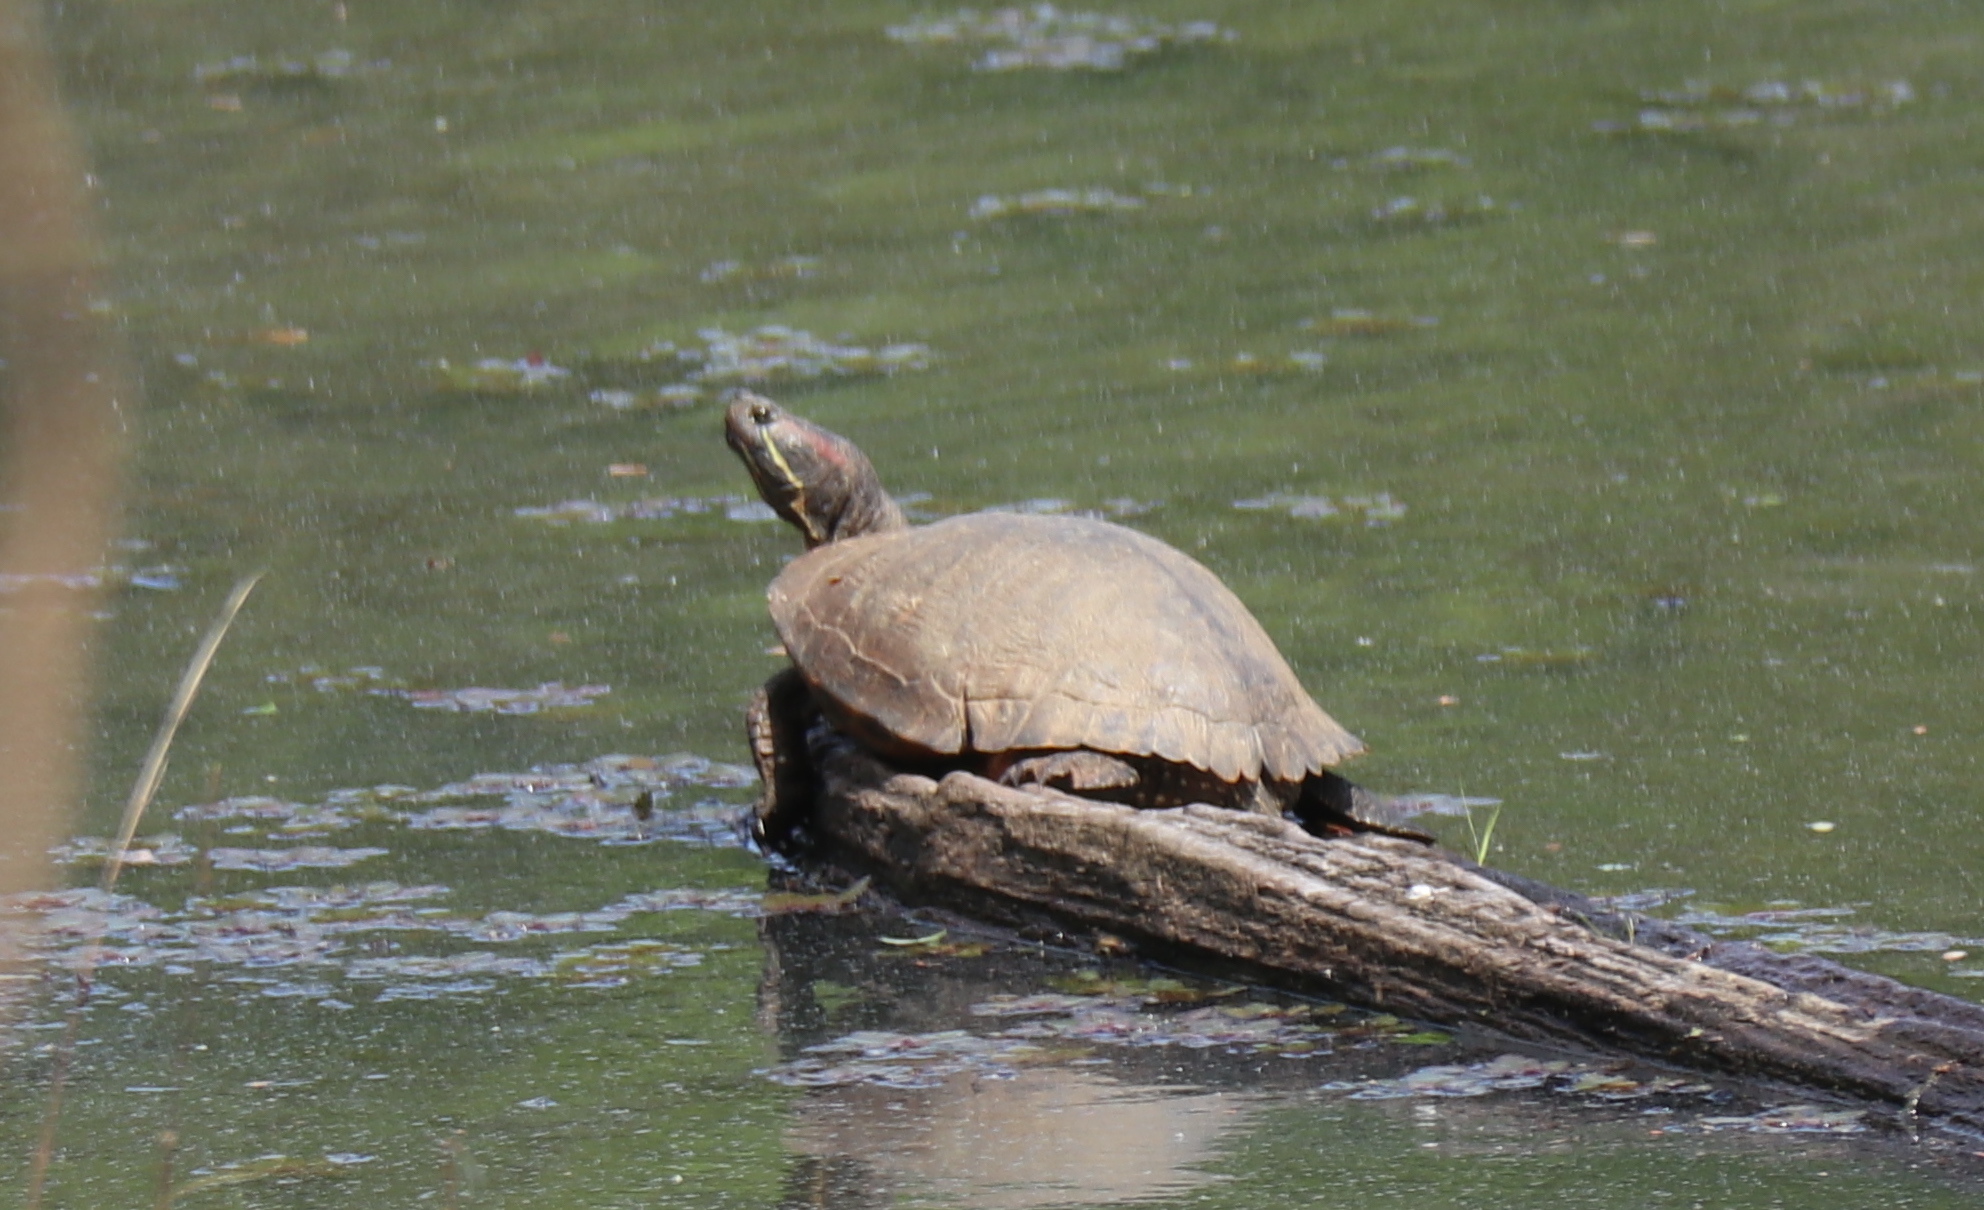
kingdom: Animalia
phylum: Chordata
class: Testudines
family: Emydidae
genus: Trachemys
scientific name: Trachemys scripta
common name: Slider
